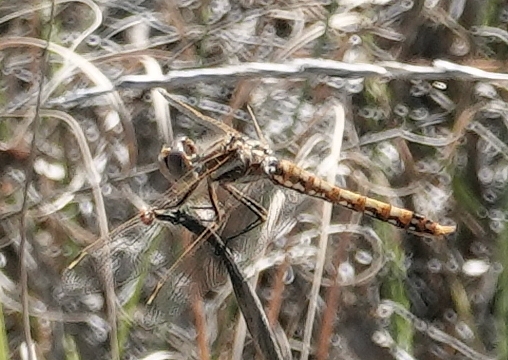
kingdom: Animalia
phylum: Arthropoda
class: Insecta
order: Odonata
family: Libellulidae
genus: Sympetrum
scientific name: Sympetrum corruptum
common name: Variegated meadowhawk
